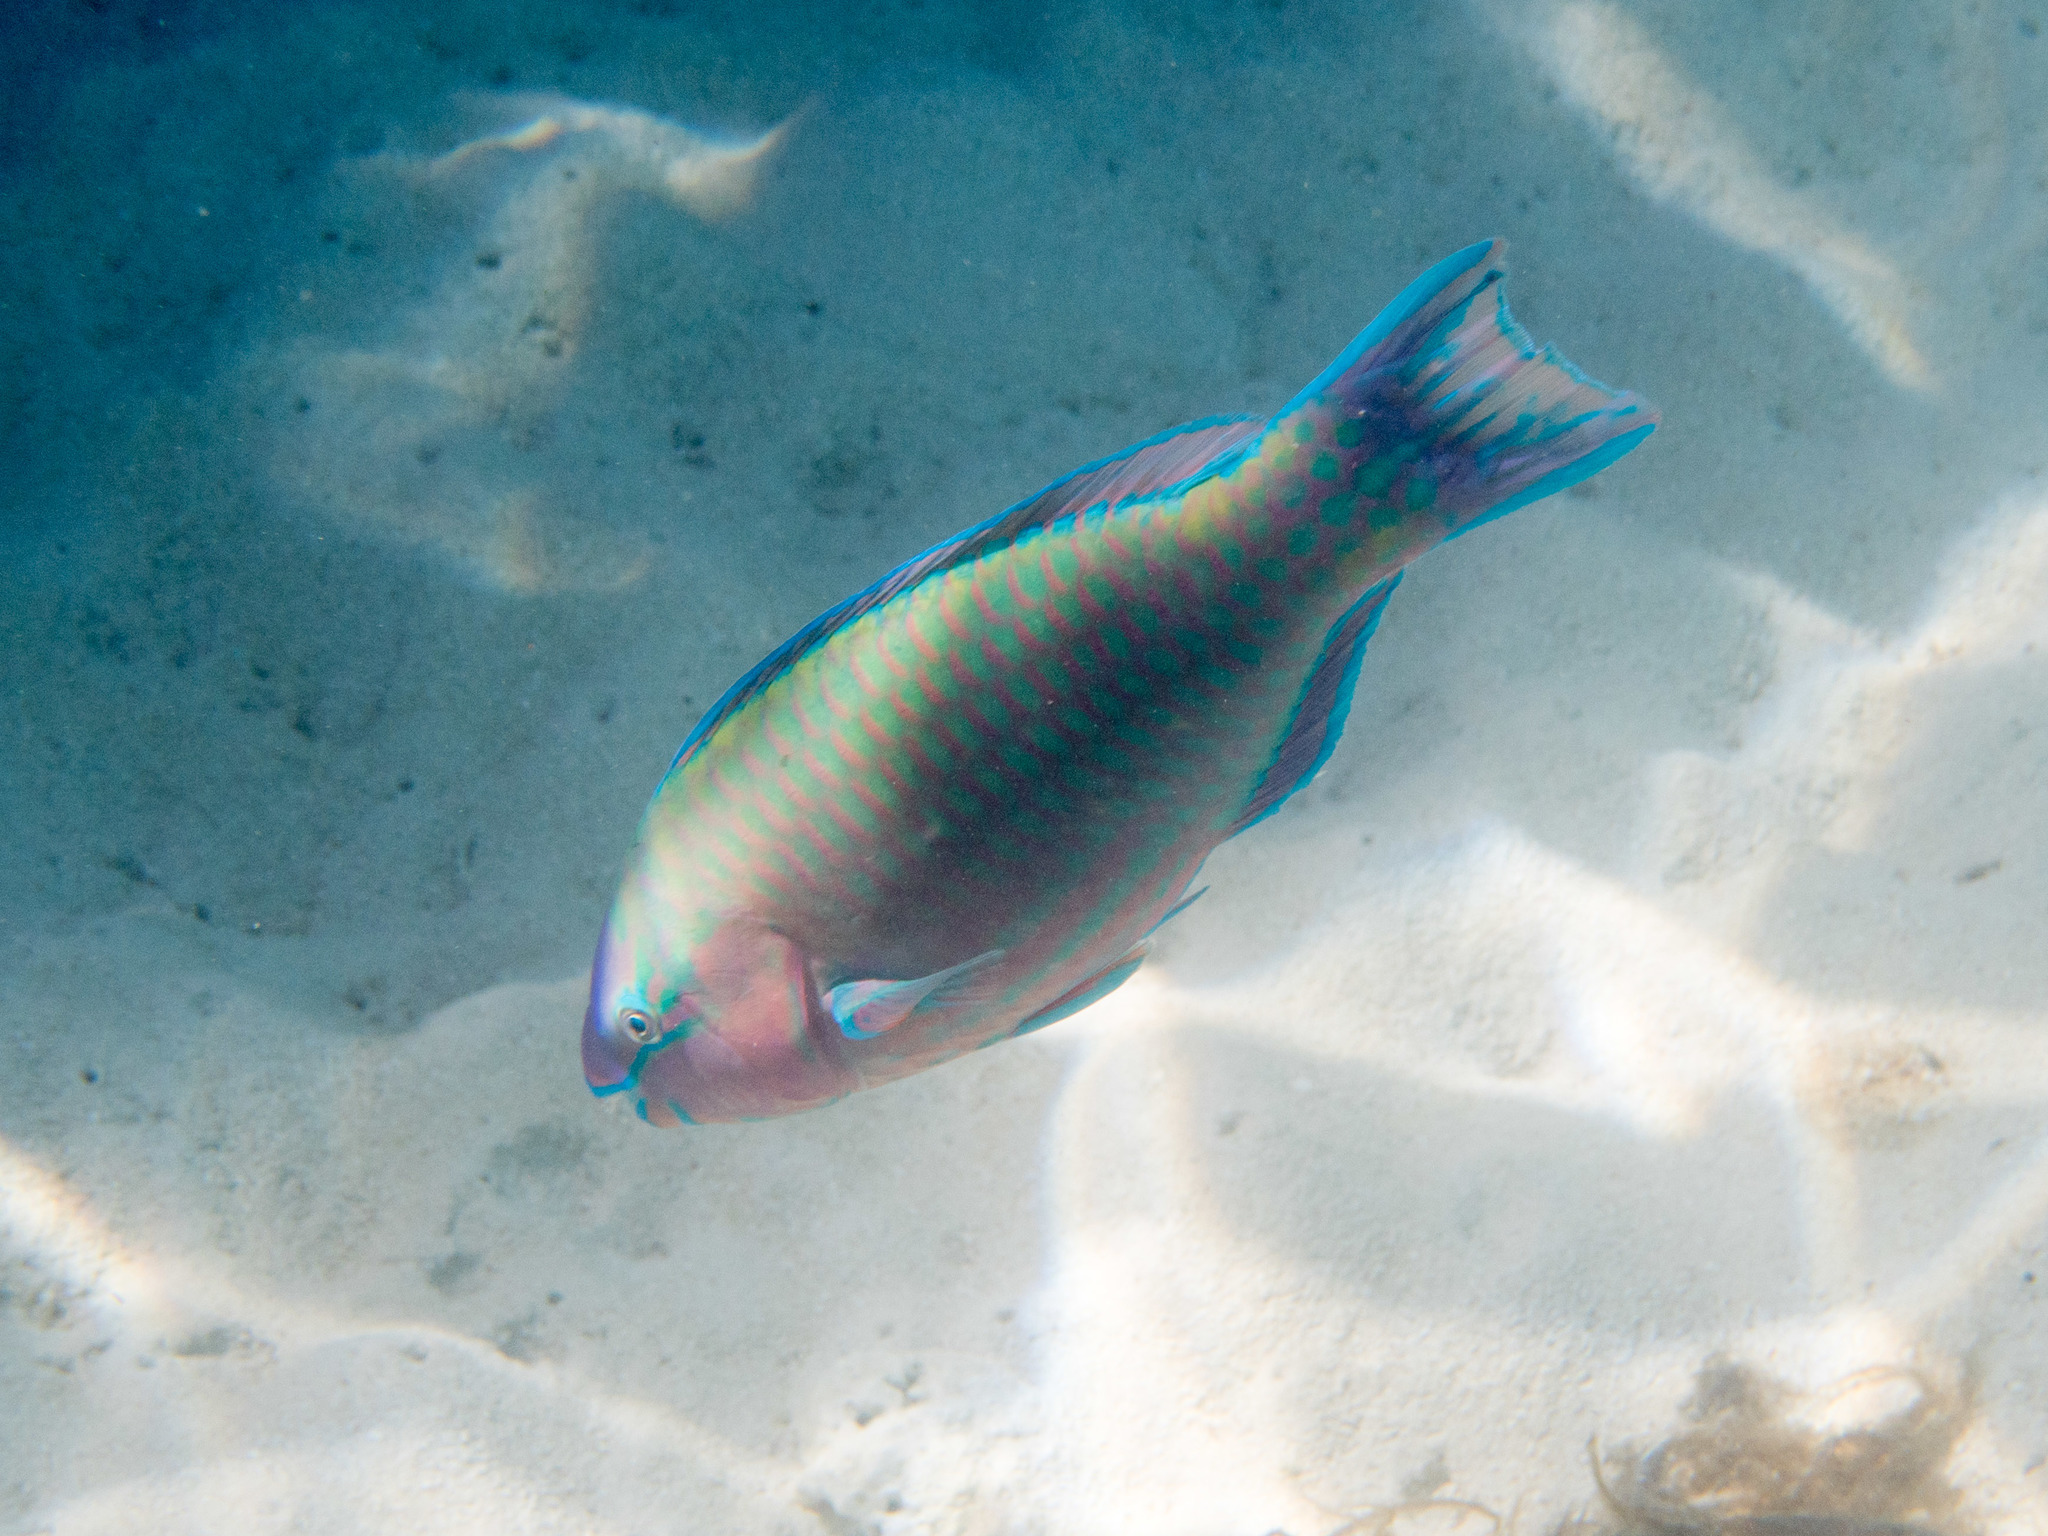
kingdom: Animalia
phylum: Chordata
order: Perciformes
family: Scaridae
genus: Scarus
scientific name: Scarus psittacus
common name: Palenose parrotfish
